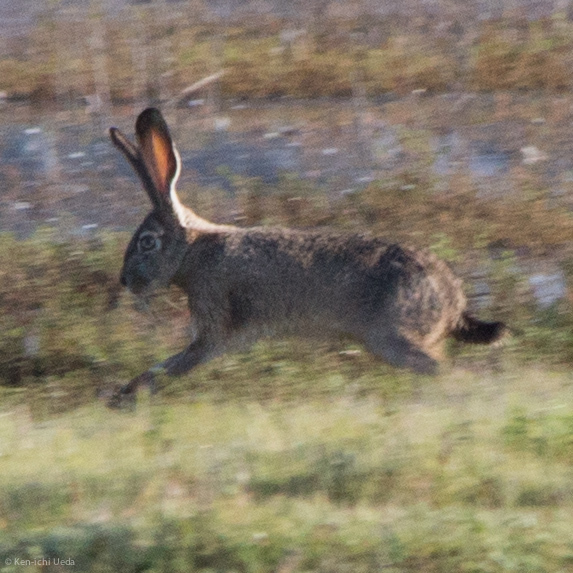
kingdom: Animalia
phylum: Chordata
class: Mammalia
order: Lagomorpha
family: Leporidae
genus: Lepus
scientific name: Lepus californicus
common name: Black-tailed jackrabbit
